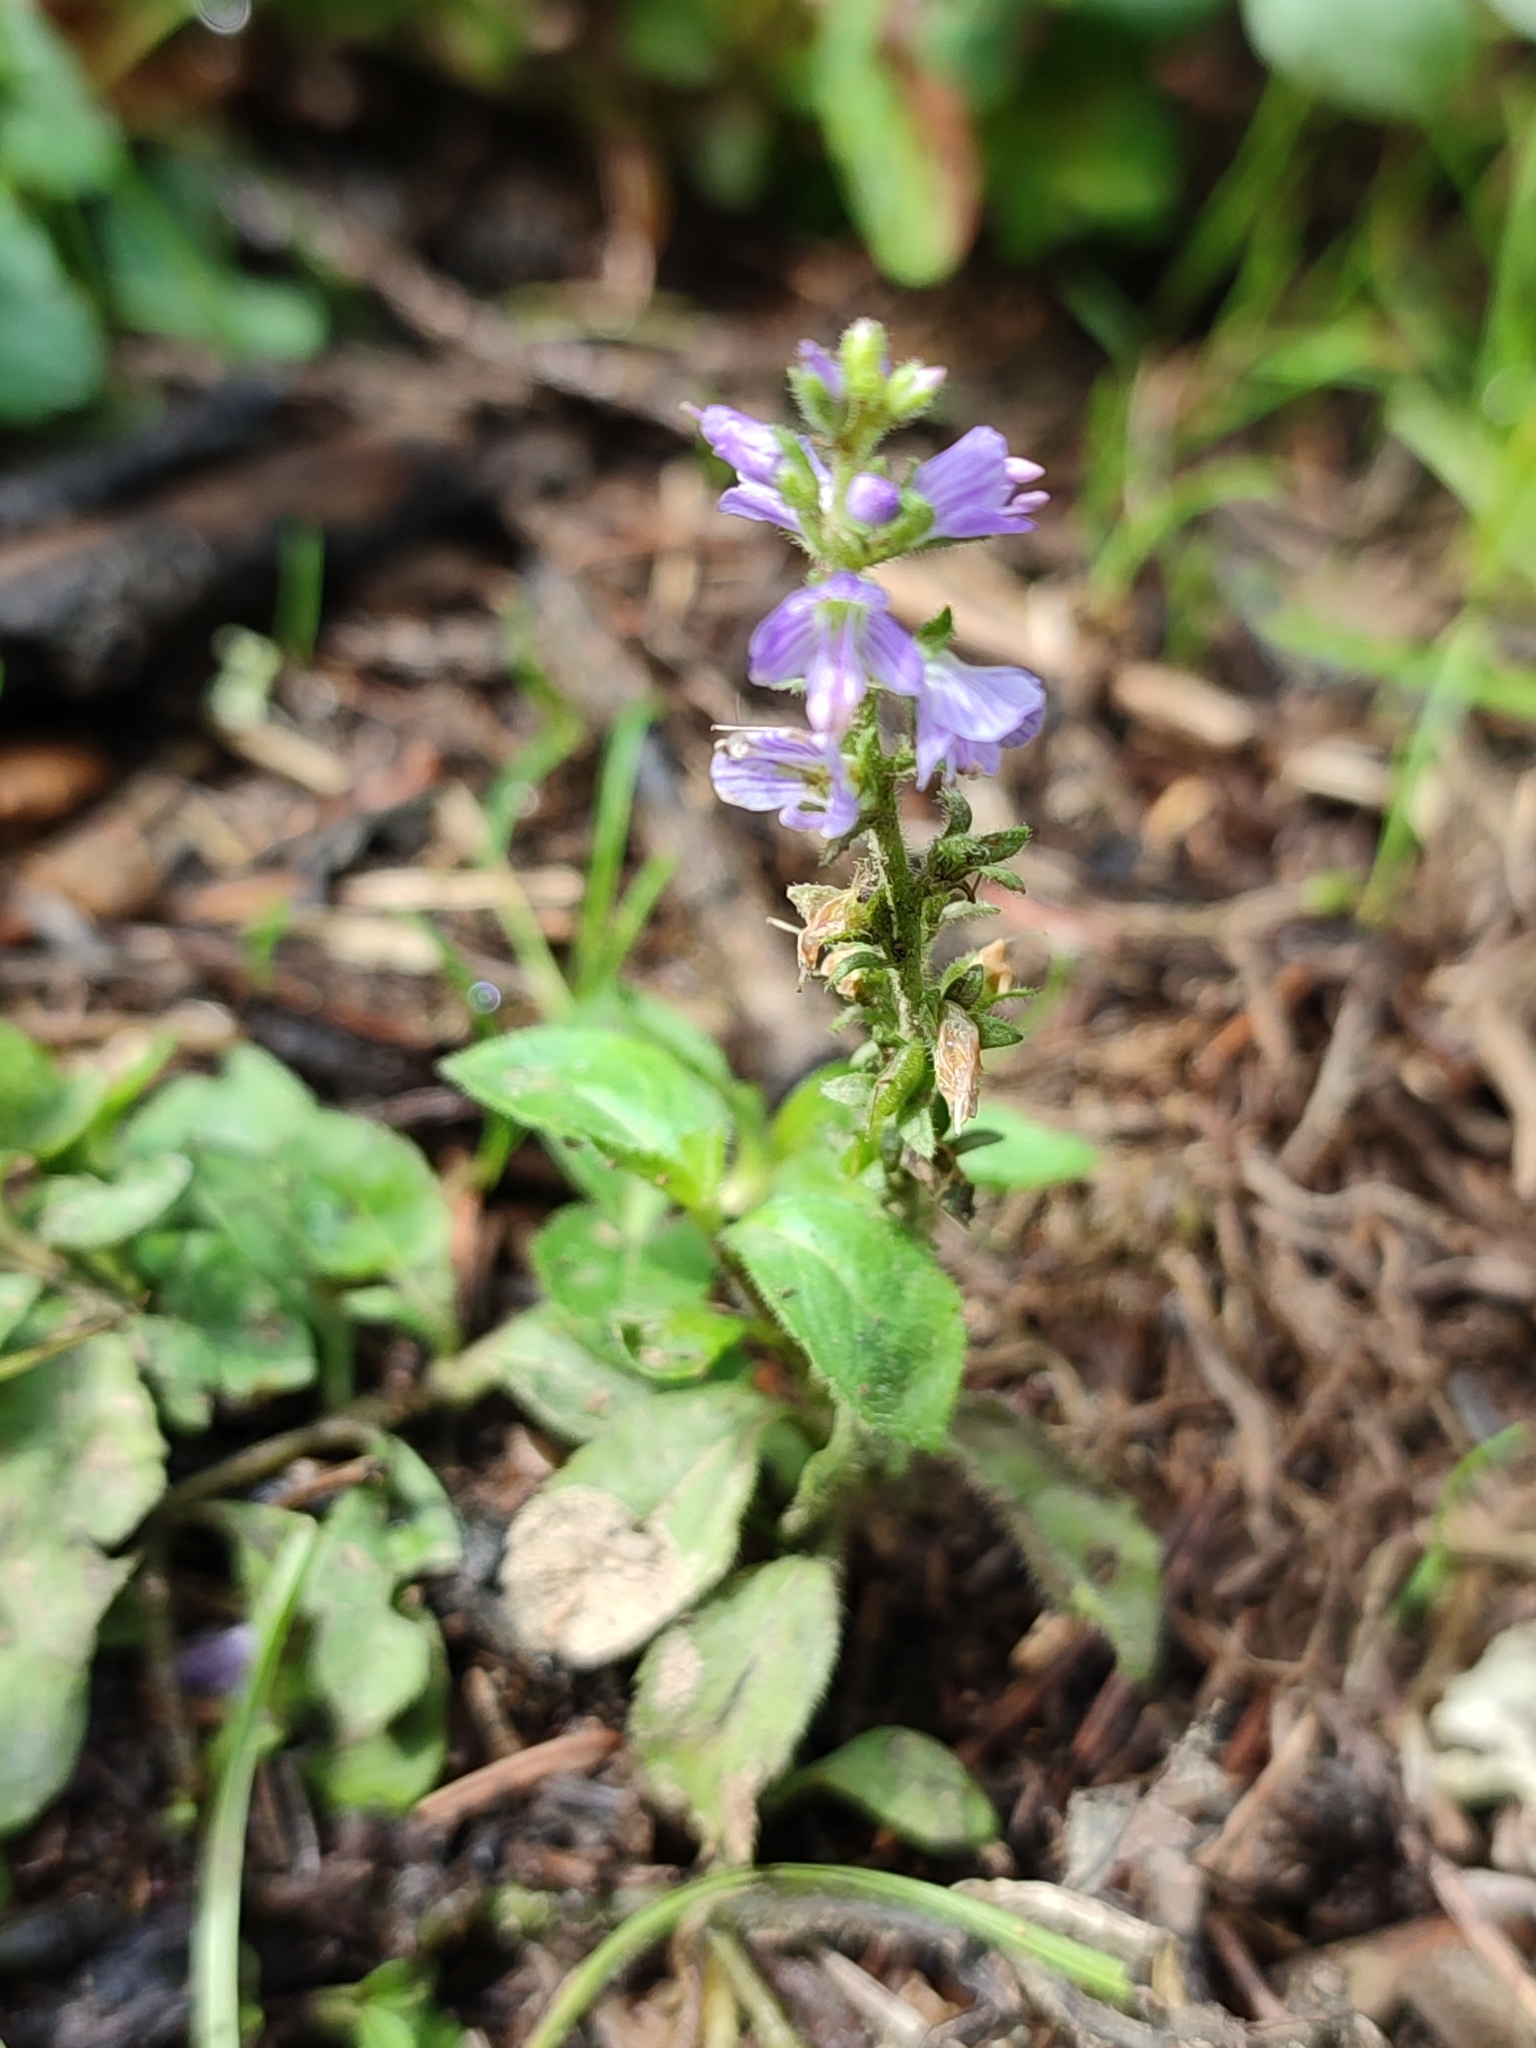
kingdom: Plantae
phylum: Tracheophyta
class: Magnoliopsida
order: Lamiales
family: Plantaginaceae
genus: Veronica
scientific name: Veronica officinalis
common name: Common speedwell
